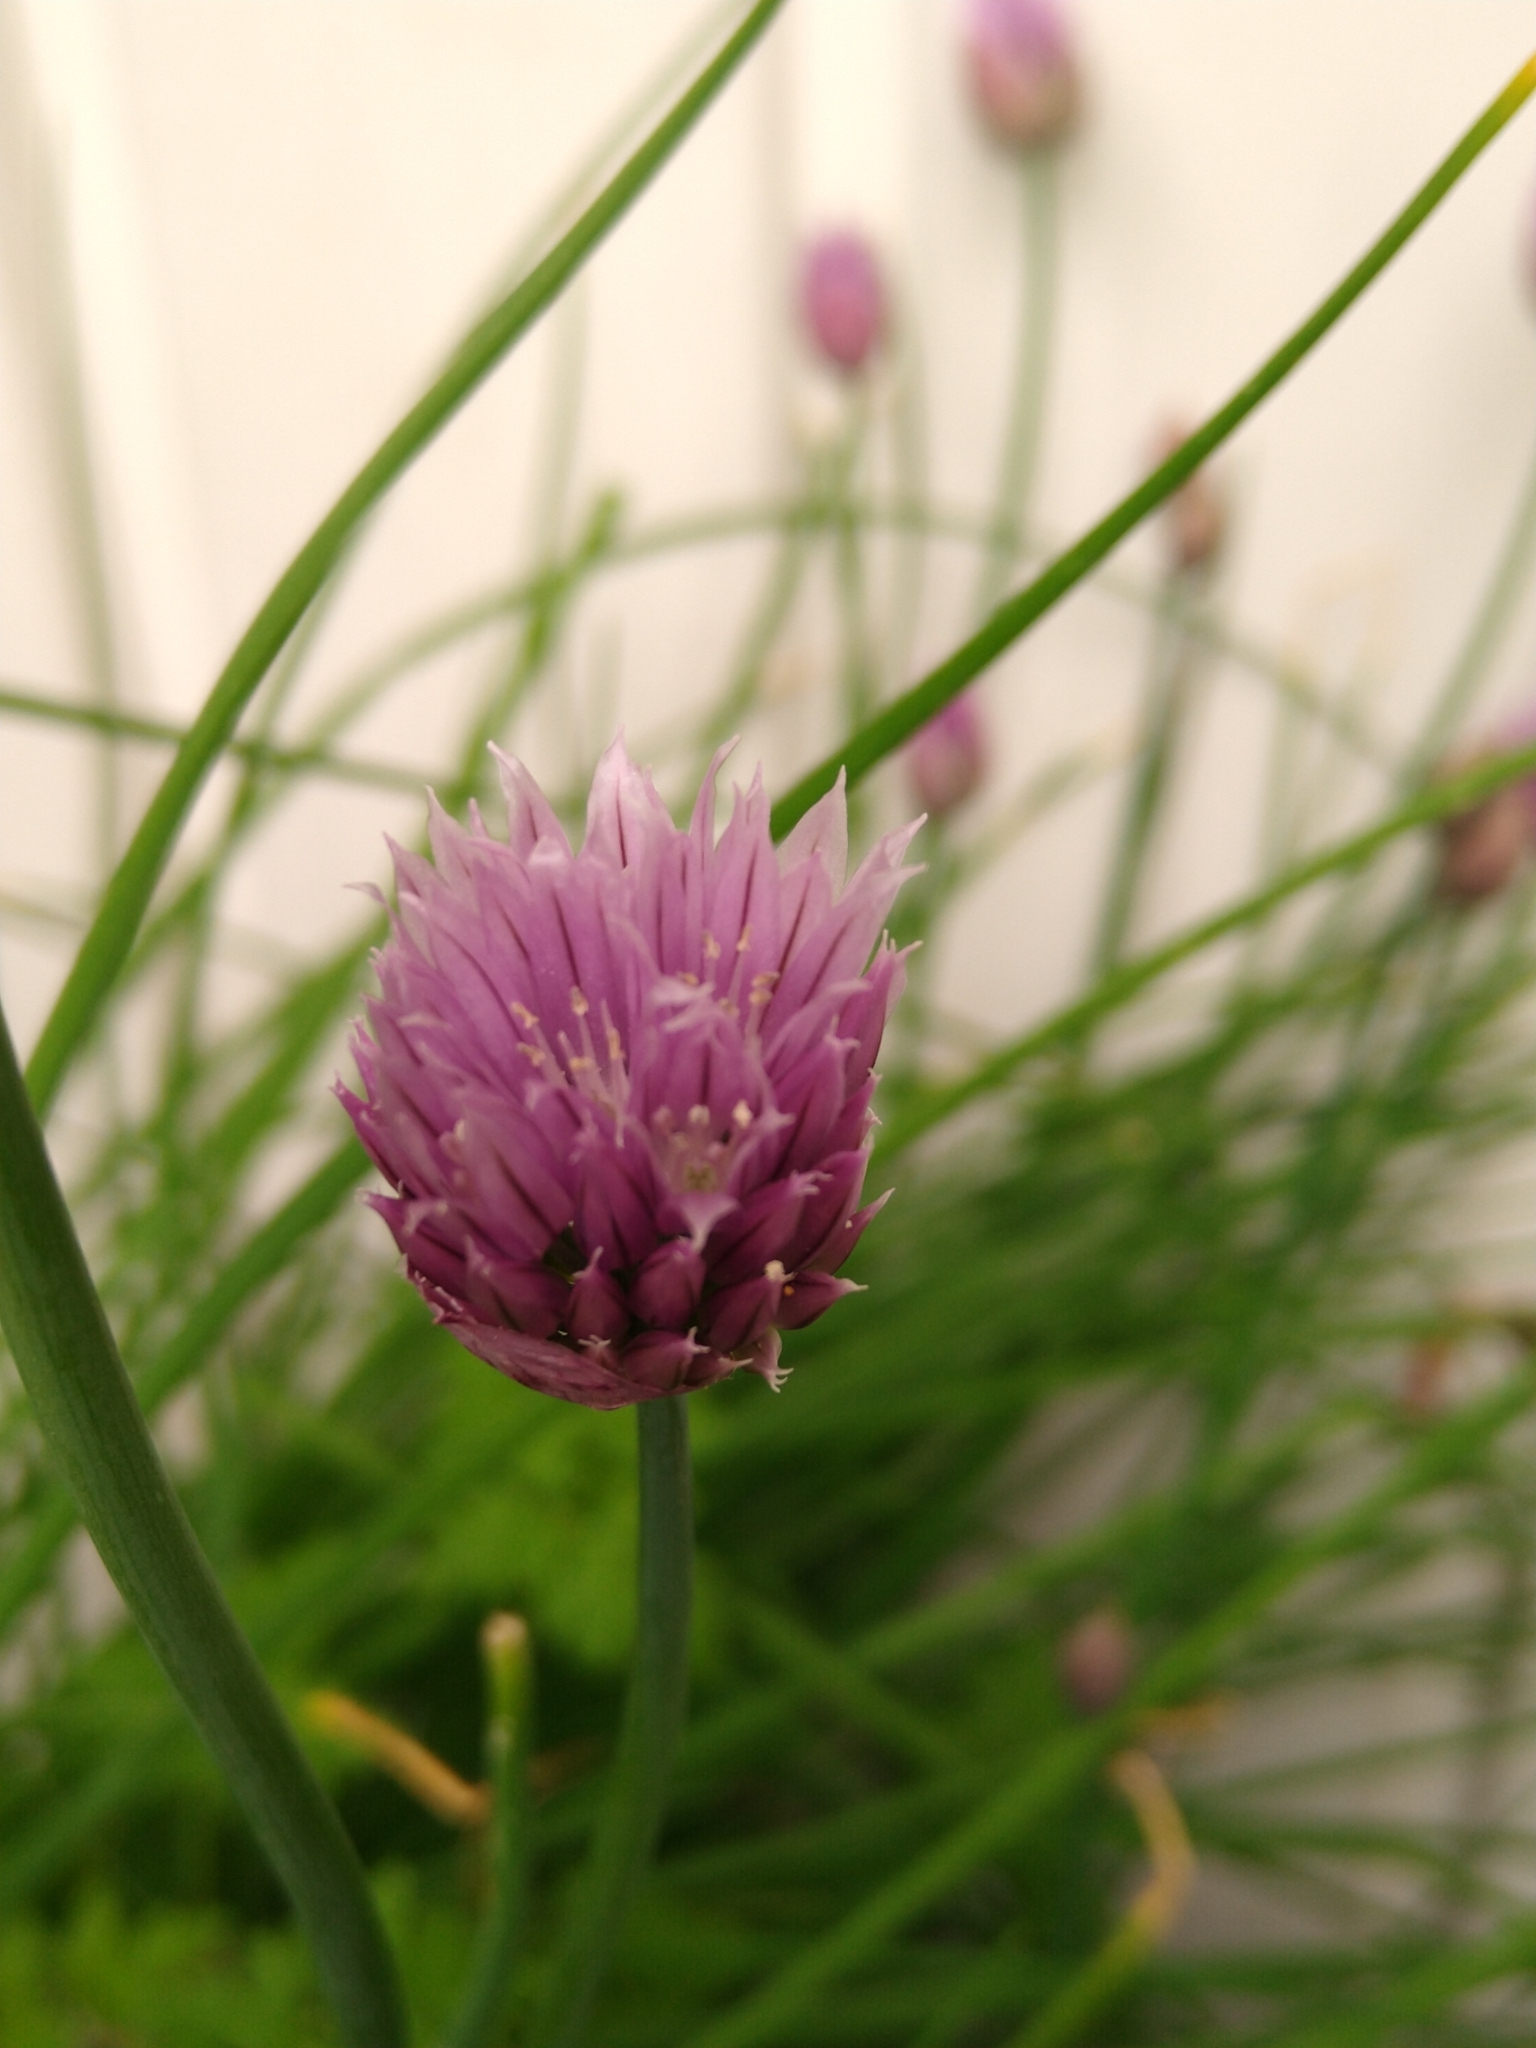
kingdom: Plantae
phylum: Tracheophyta
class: Liliopsida
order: Asparagales
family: Amaryllidaceae
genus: Allium
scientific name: Allium schoenoprasum
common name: Chives
